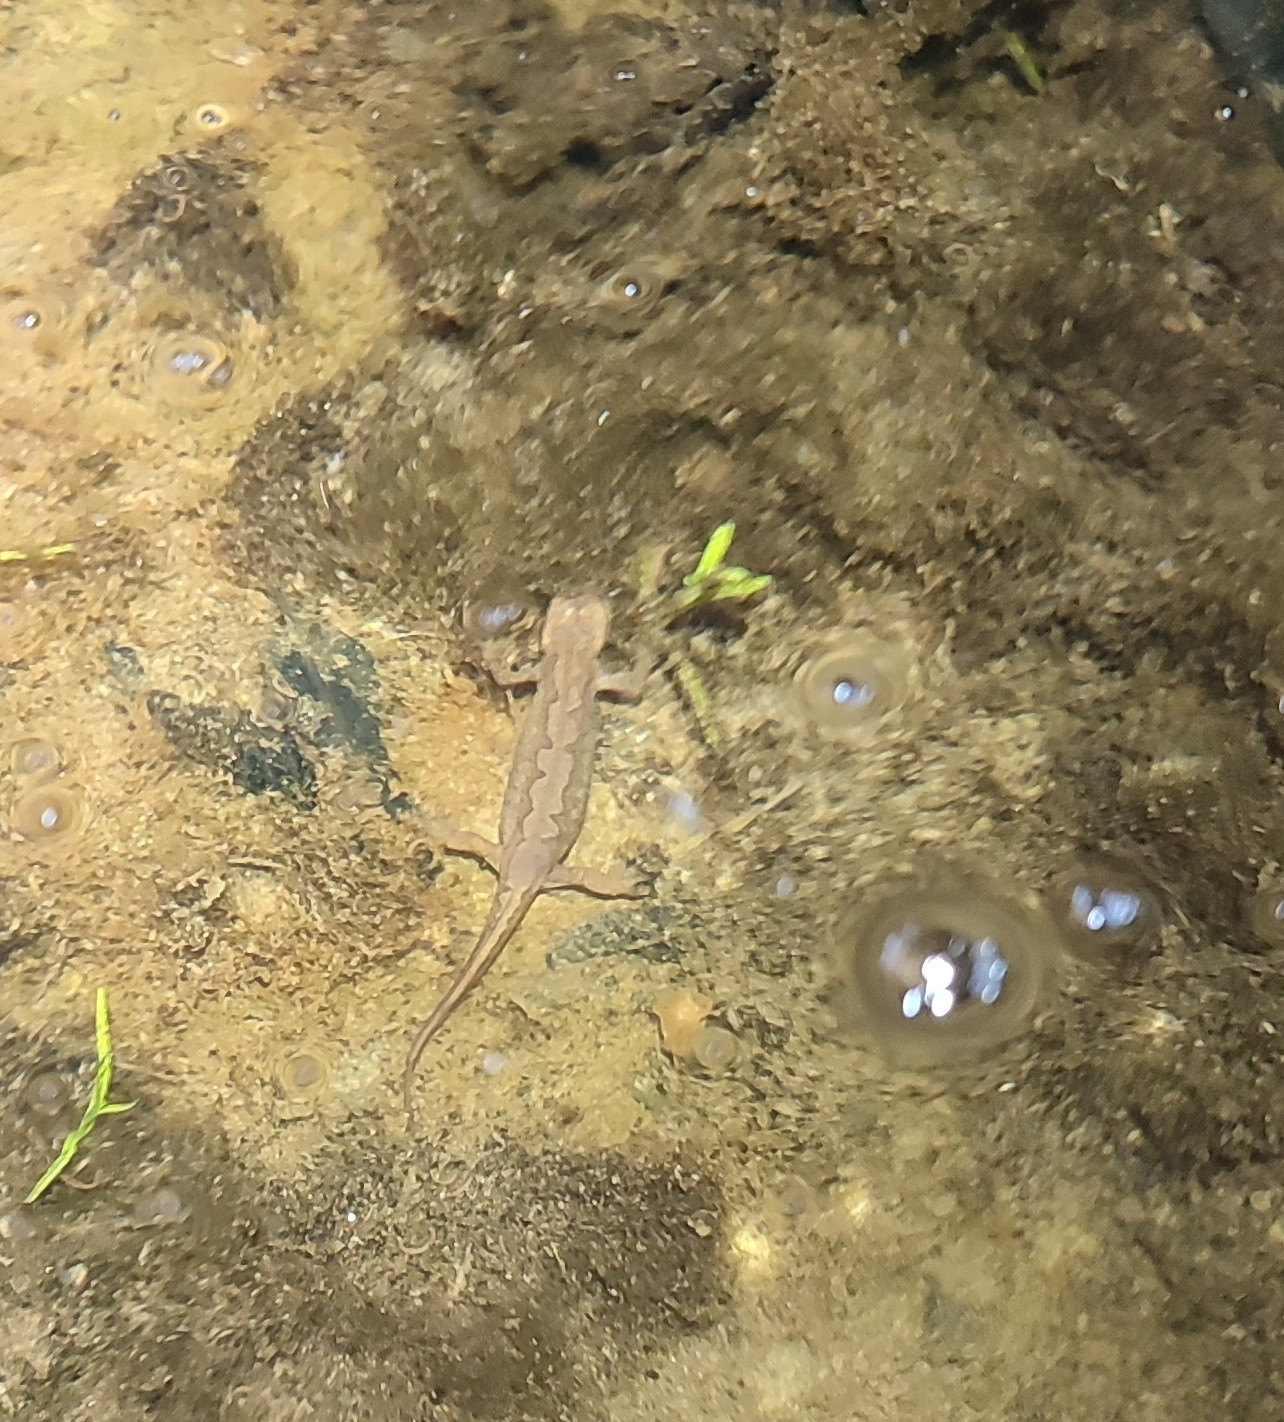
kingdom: Animalia
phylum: Chordata
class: Amphibia
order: Caudata
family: Salamandridae
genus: Lissotriton
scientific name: Lissotriton helveticus
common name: Palmate newt
